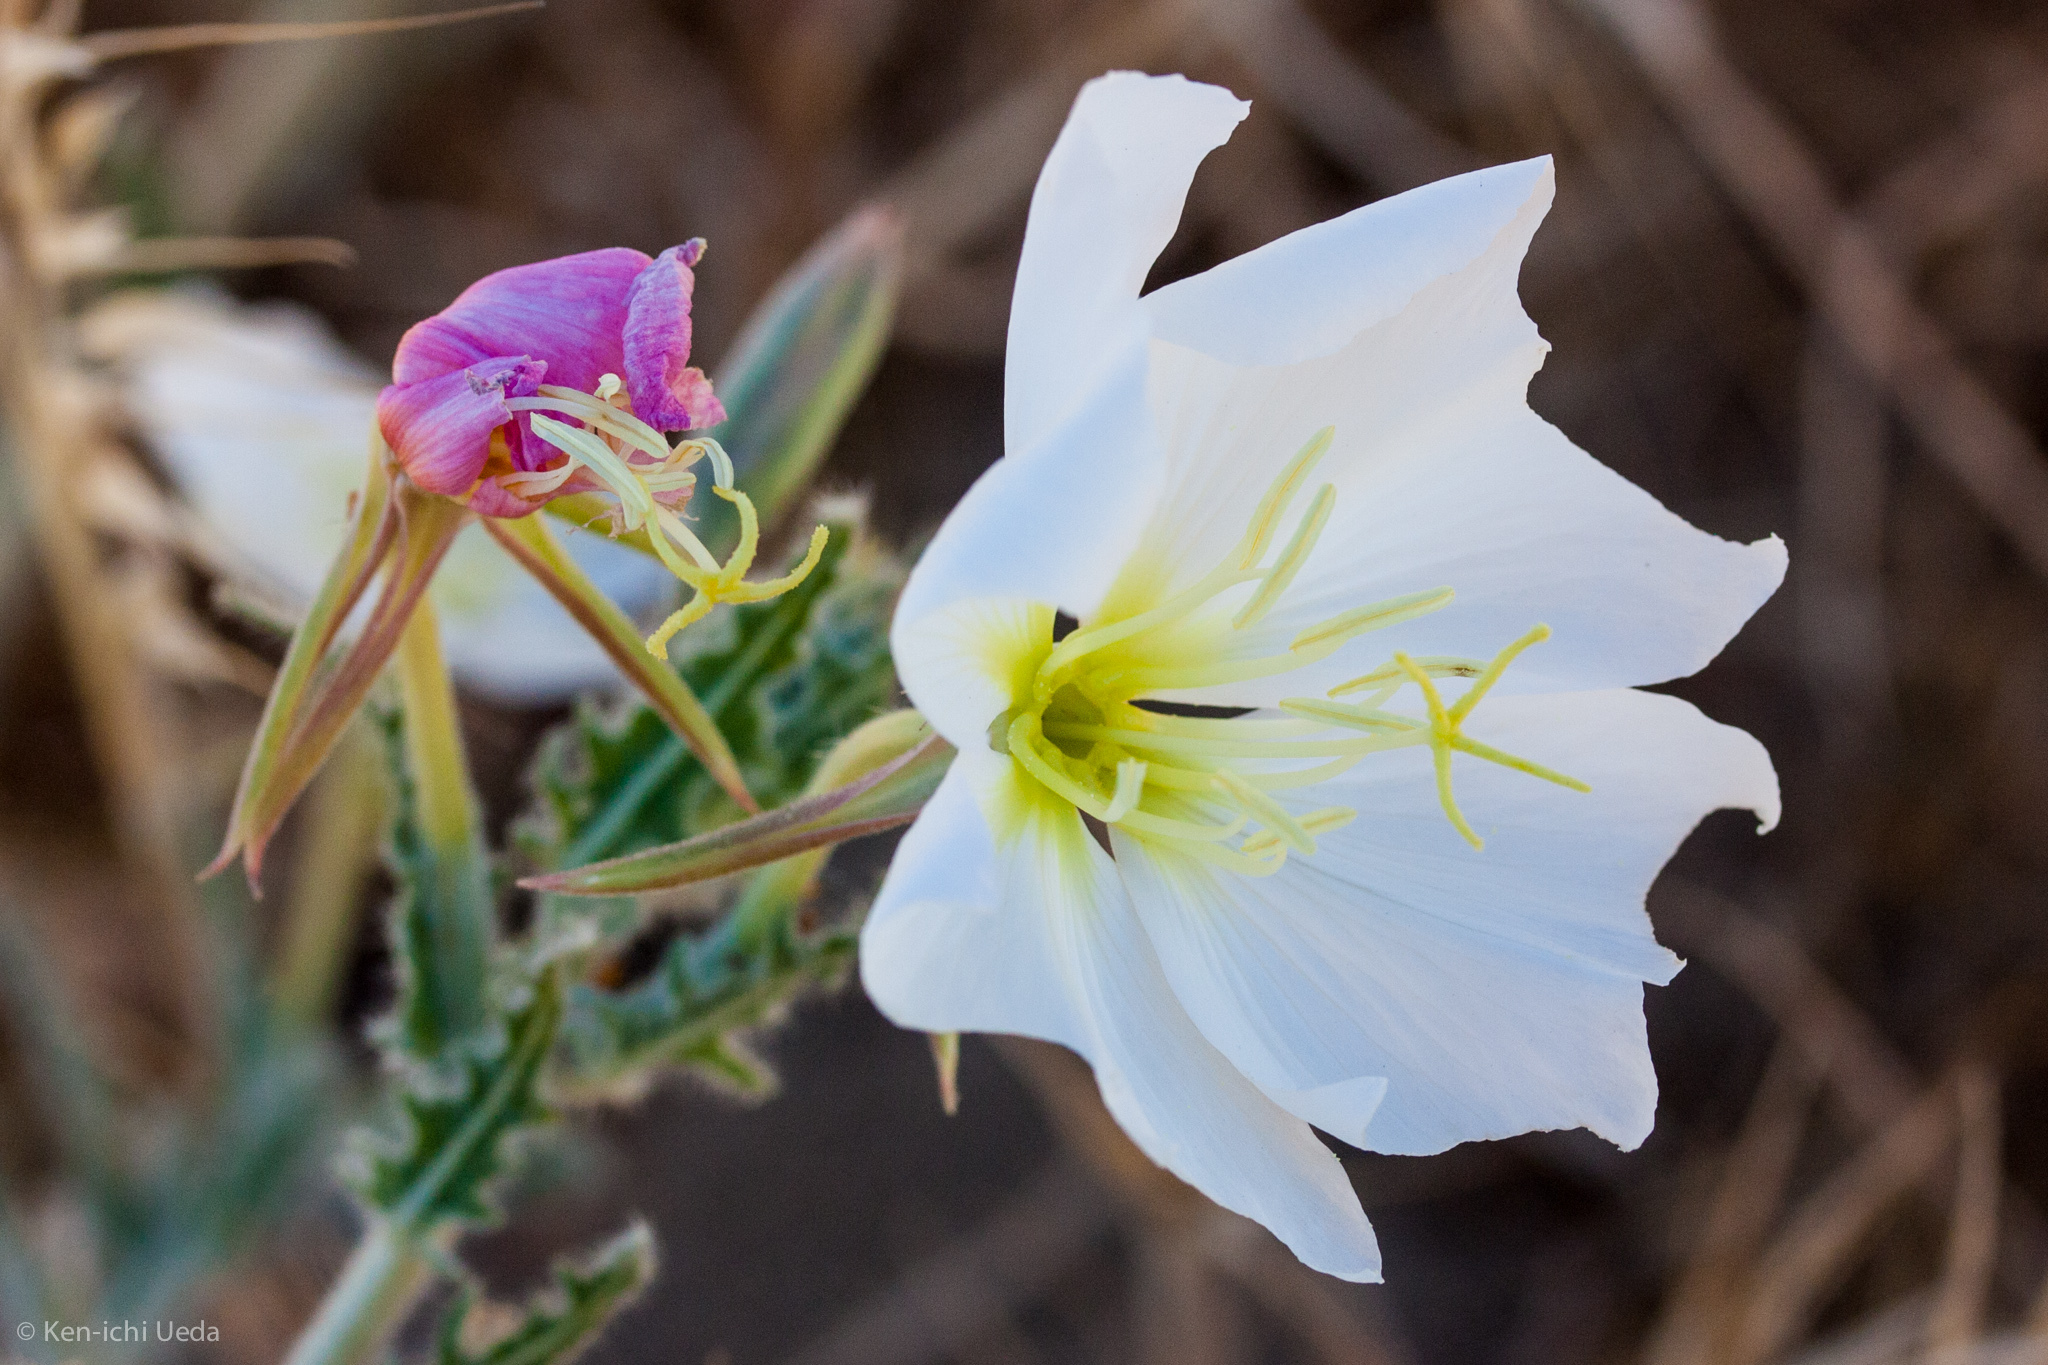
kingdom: Plantae
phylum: Tracheophyta
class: Magnoliopsida
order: Myrtales
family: Onagraceae
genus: Oenothera
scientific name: Oenothera deltoides
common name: Basket evening-primrose
